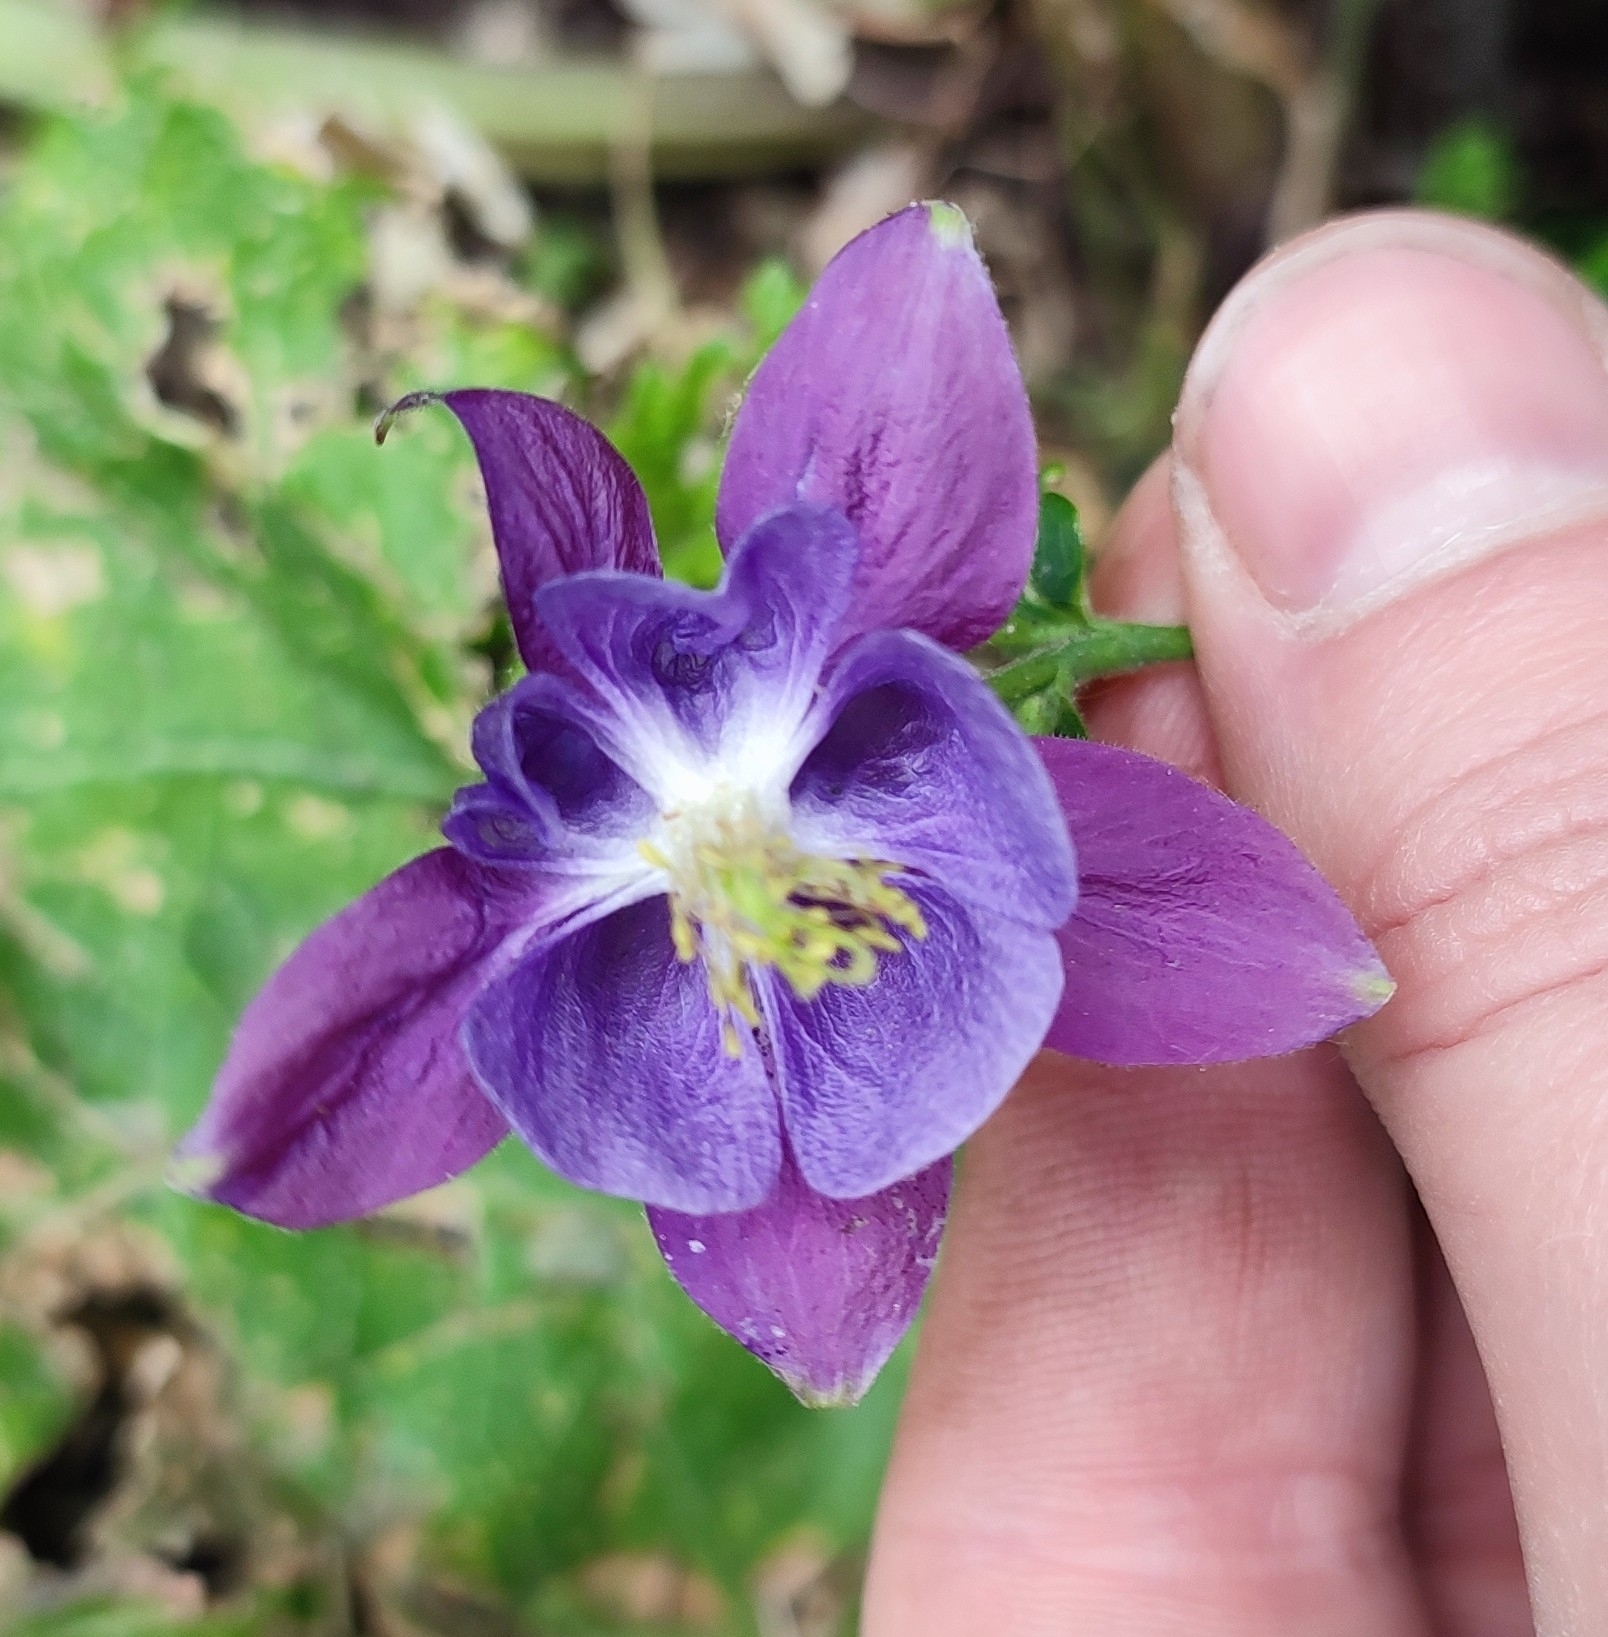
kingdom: Plantae
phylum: Tracheophyta
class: Magnoliopsida
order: Ranunculales
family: Ranunculaceae
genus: Aquilegia
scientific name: Aquilegia vulgaris
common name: Columbine
